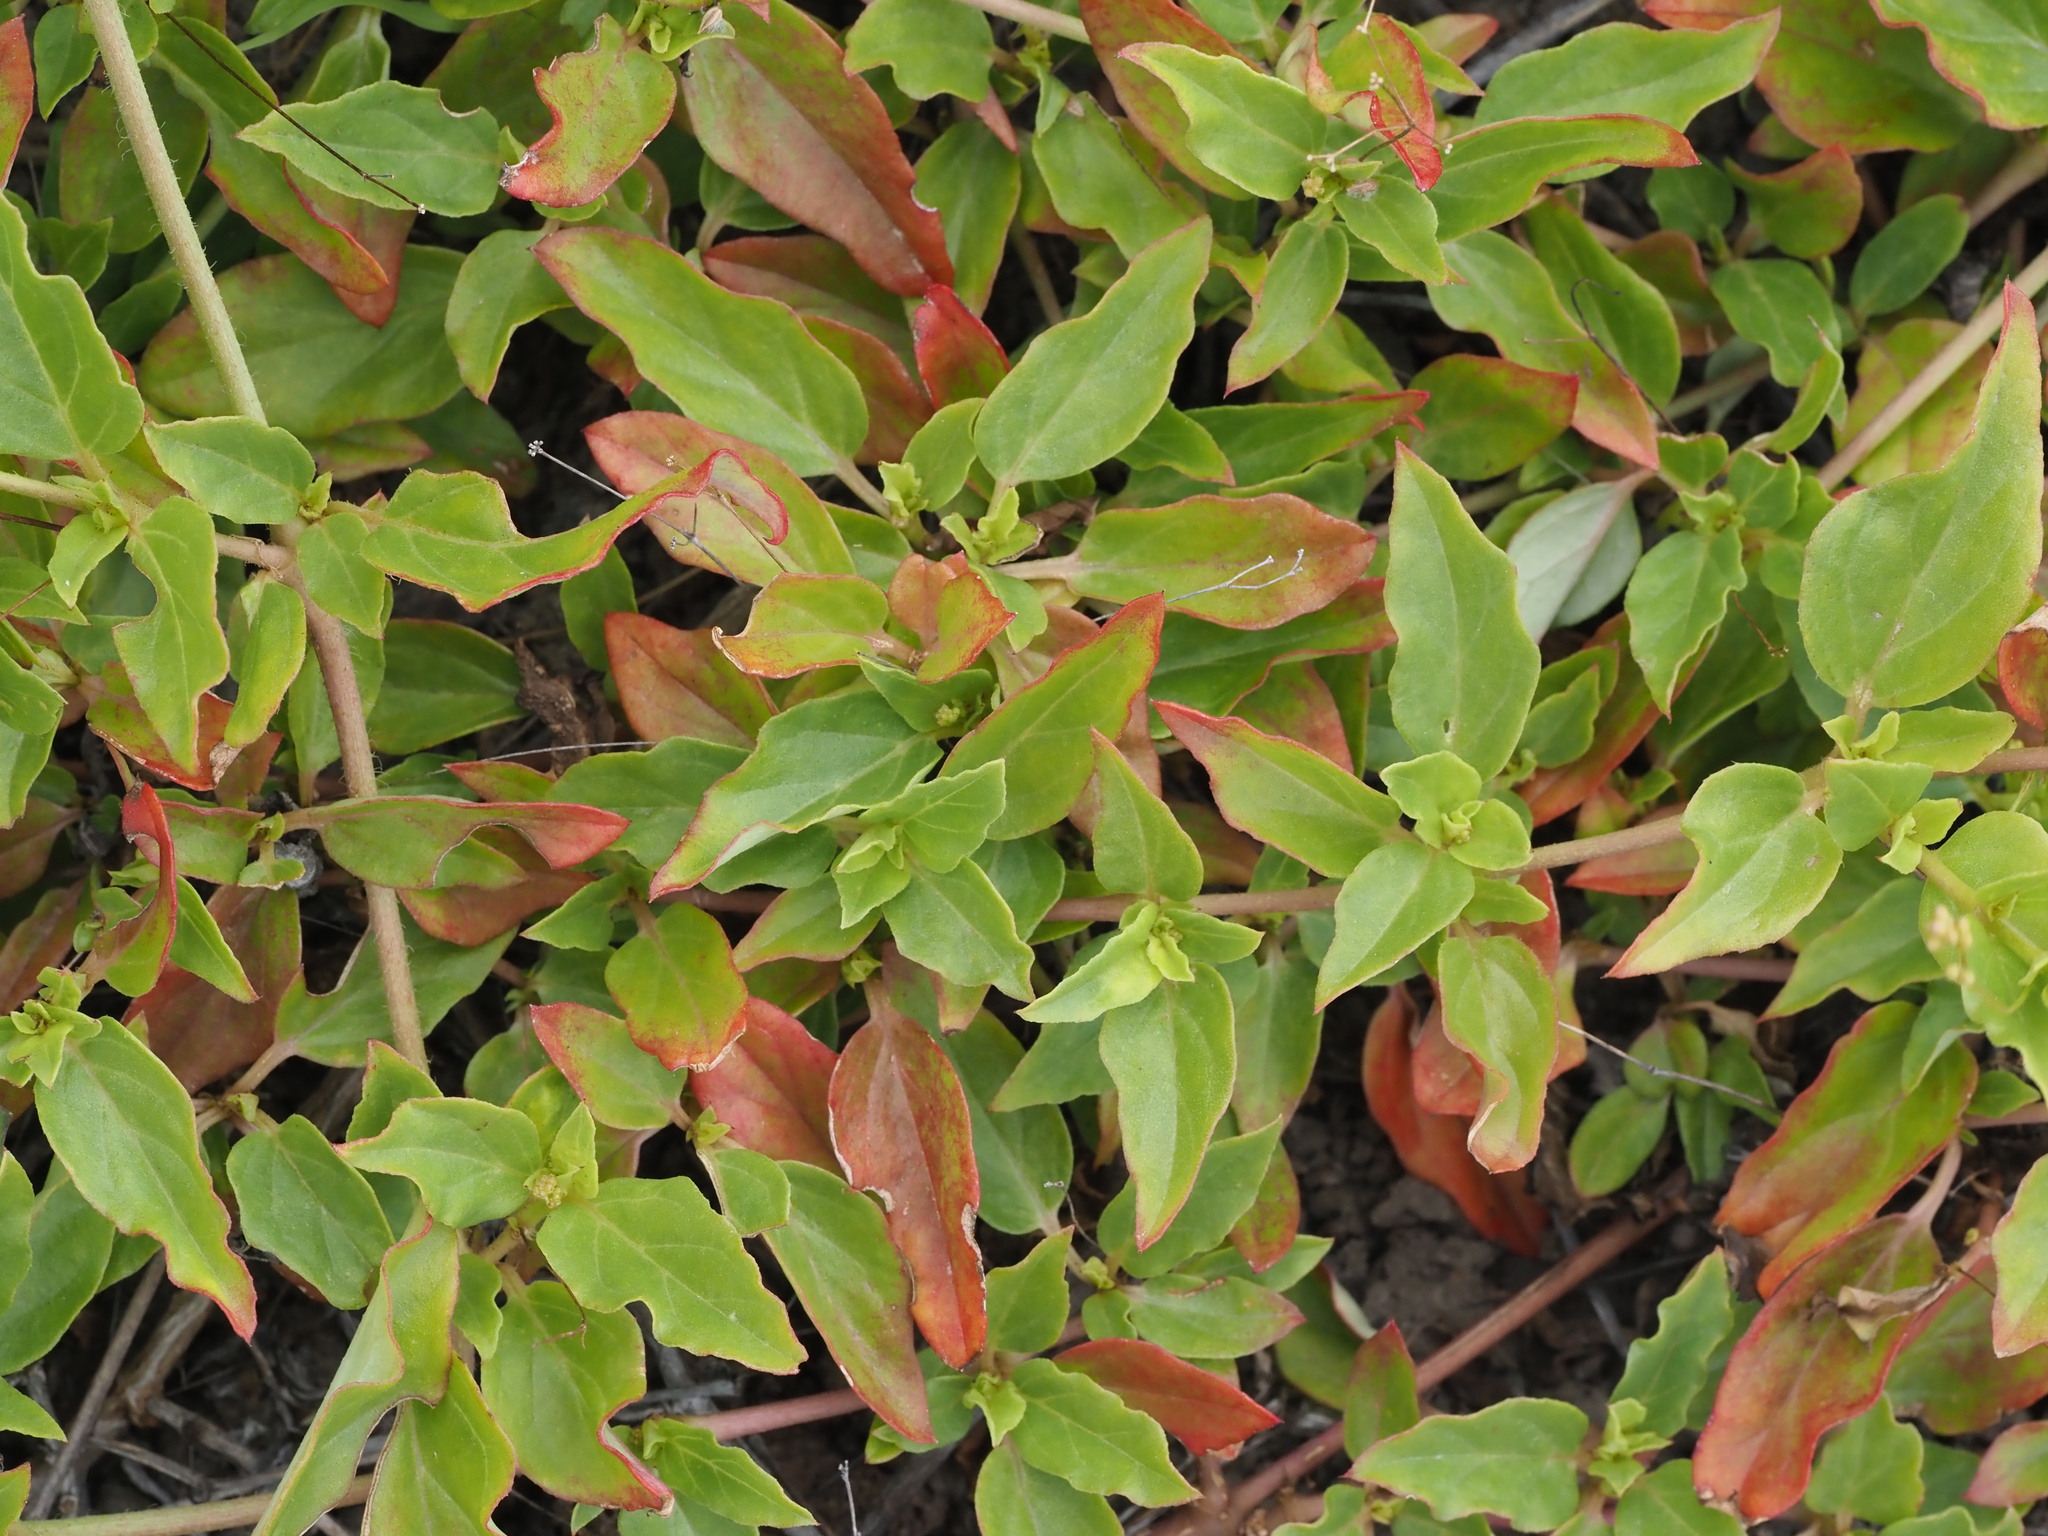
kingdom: Plantae
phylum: Tracheophyta
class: Magnoliopsida
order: Caryophyllales
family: Nyctaginaceae
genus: Boerhavia
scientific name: Boerhavia glabrata
